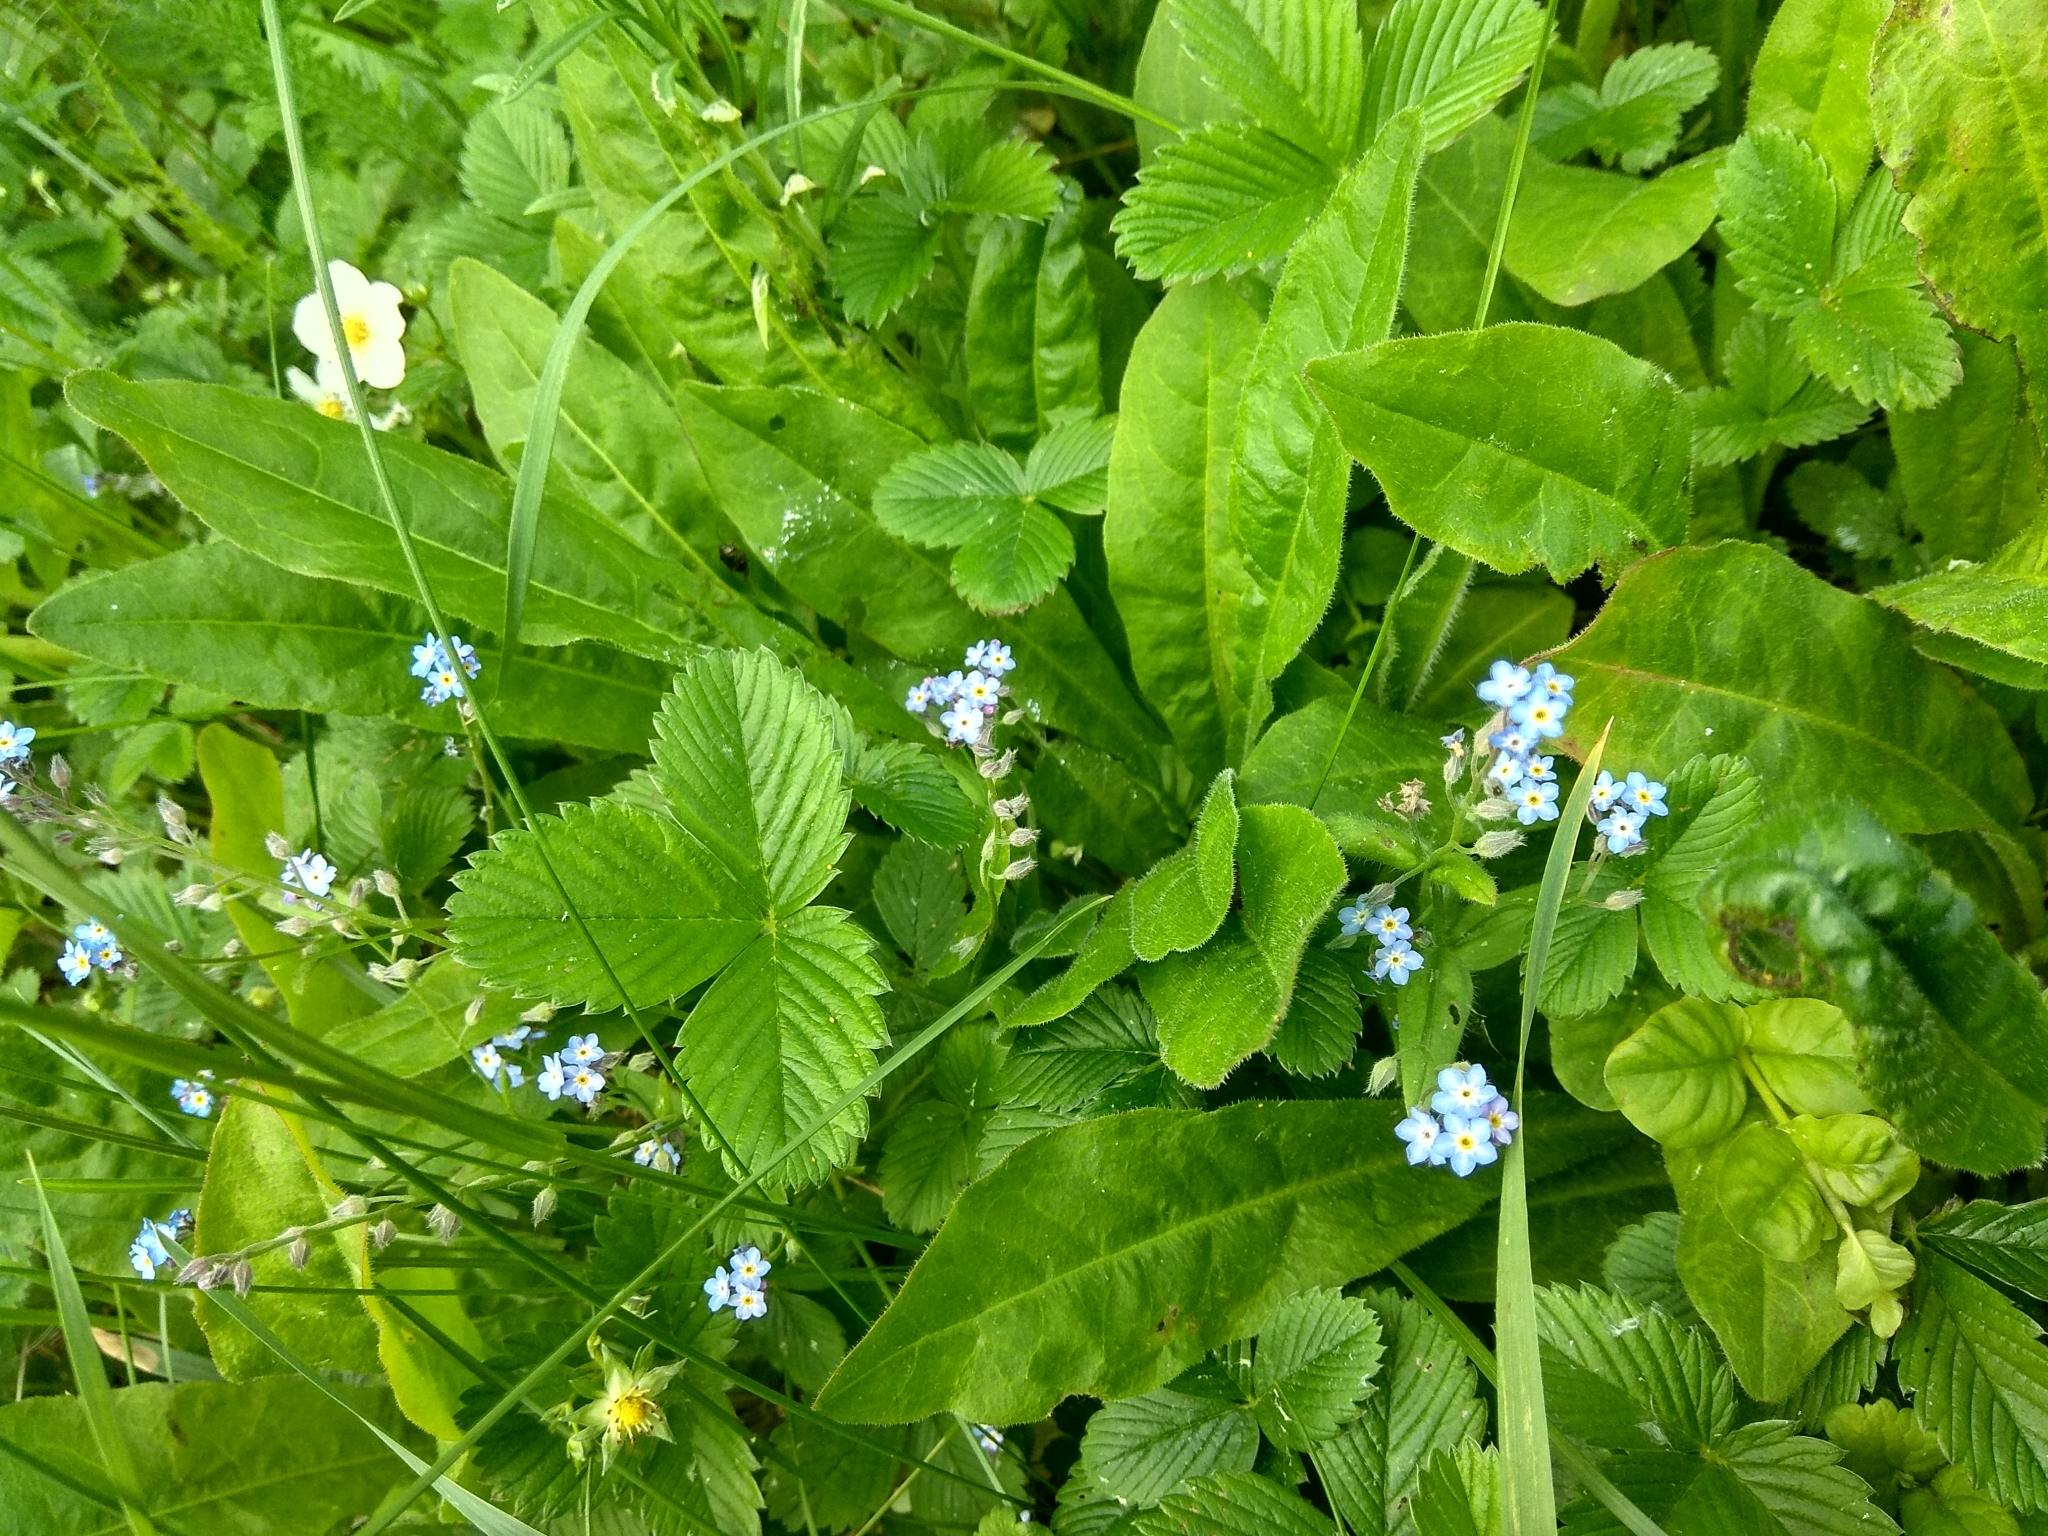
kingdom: Plantae
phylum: Tracheophyta
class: Magnoliopsida
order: Boraginales
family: Boraginaceae
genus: Myosotis
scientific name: Myosotis sylvatica
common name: Wood forget-me-not
